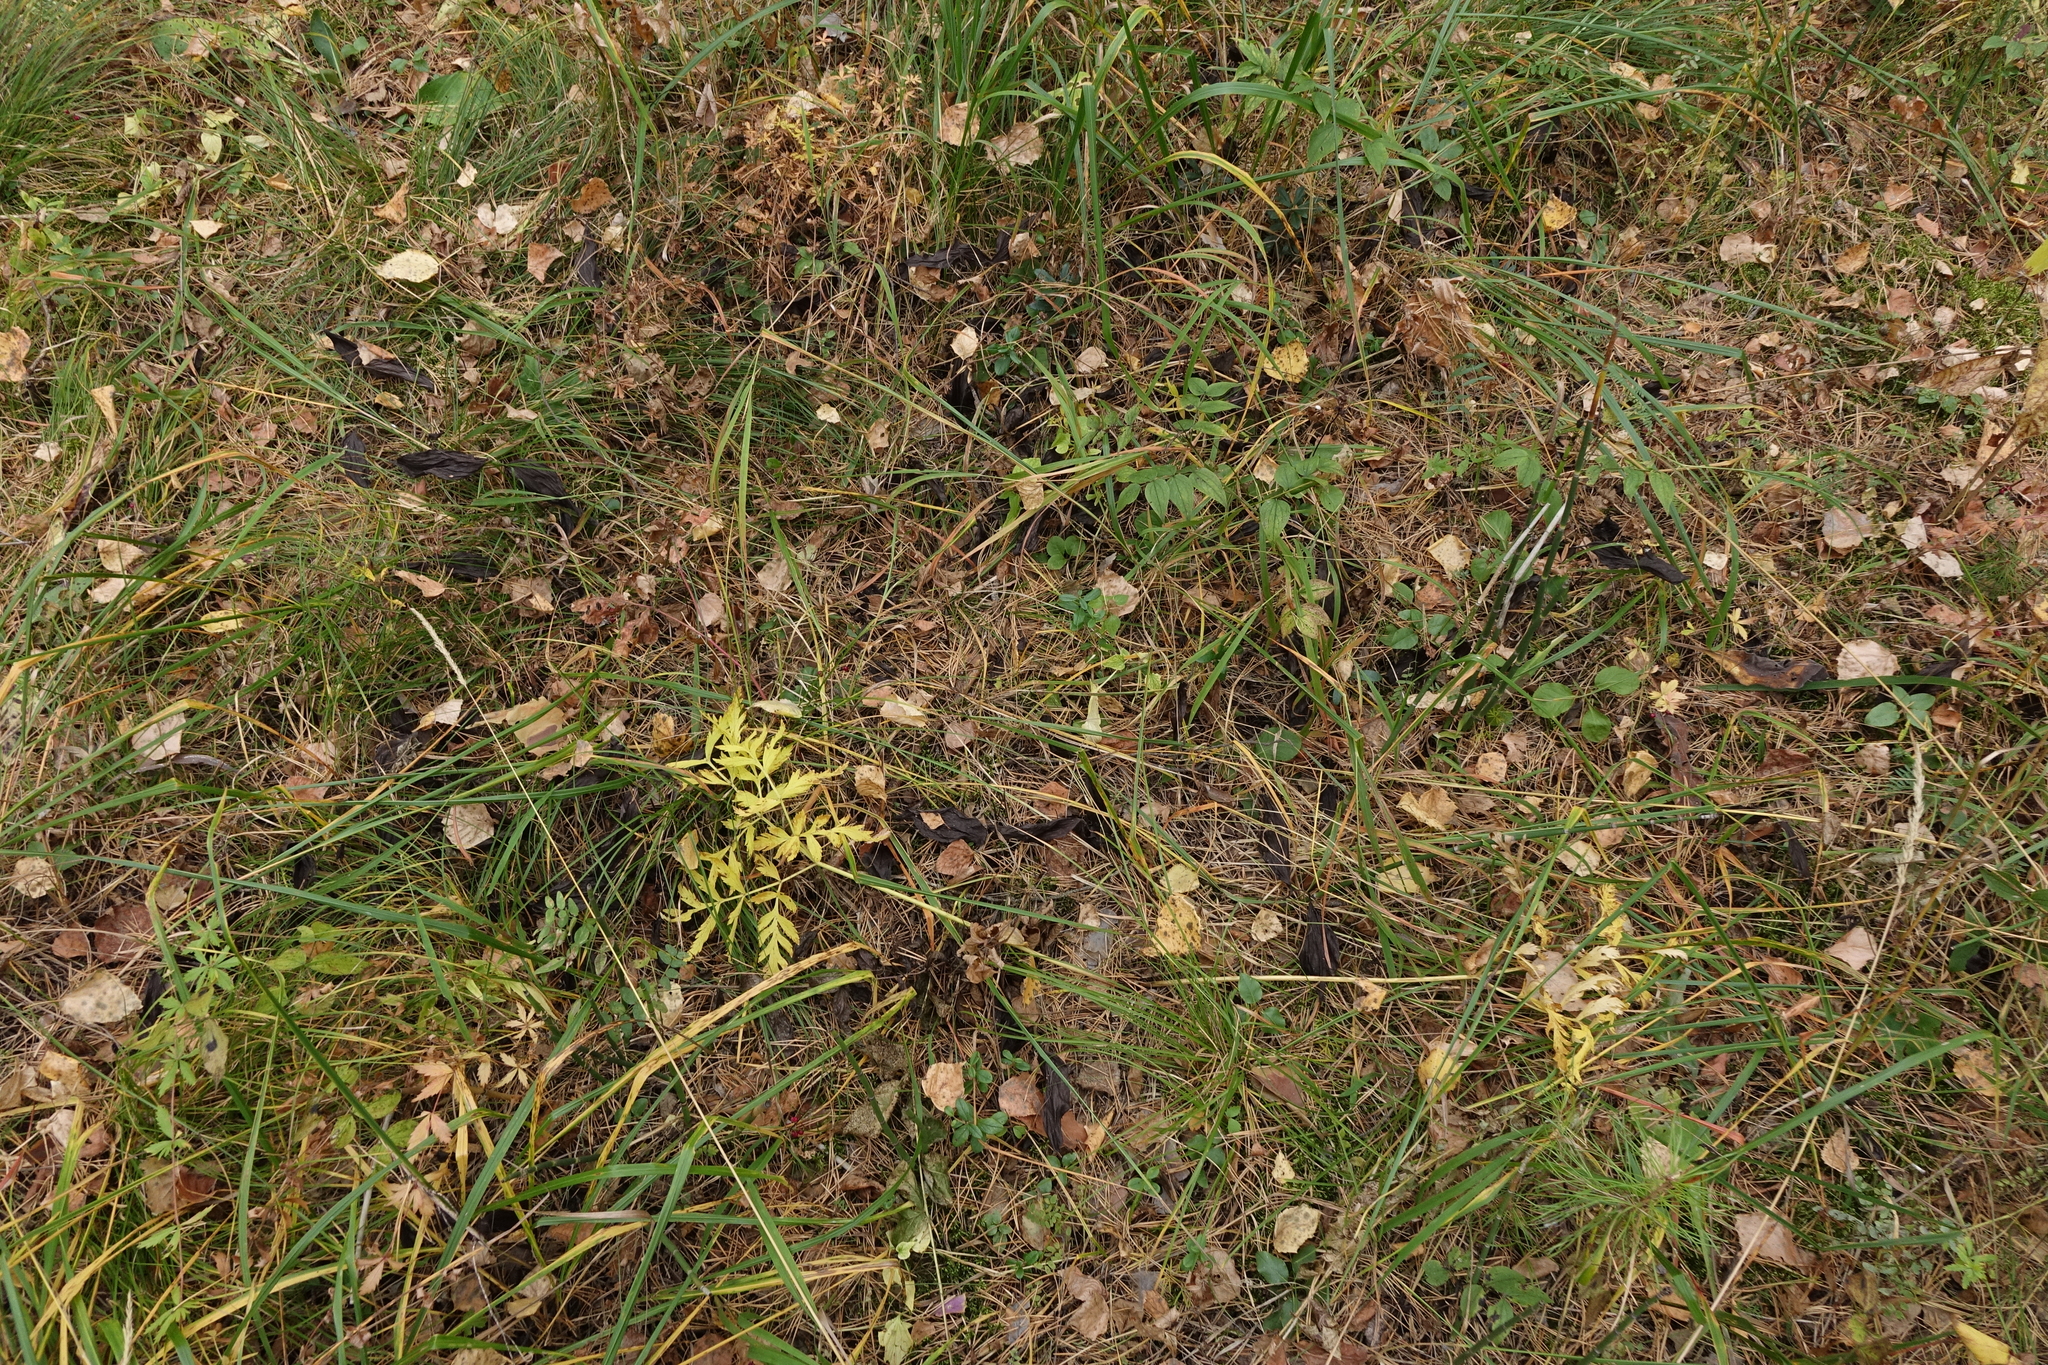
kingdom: Plantae
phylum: Tracheophyta
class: Liliopsida
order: Asparagales
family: Orchidaceae
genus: Cypripedium
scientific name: Cypripedium guttatum
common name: Pink lady slipper
